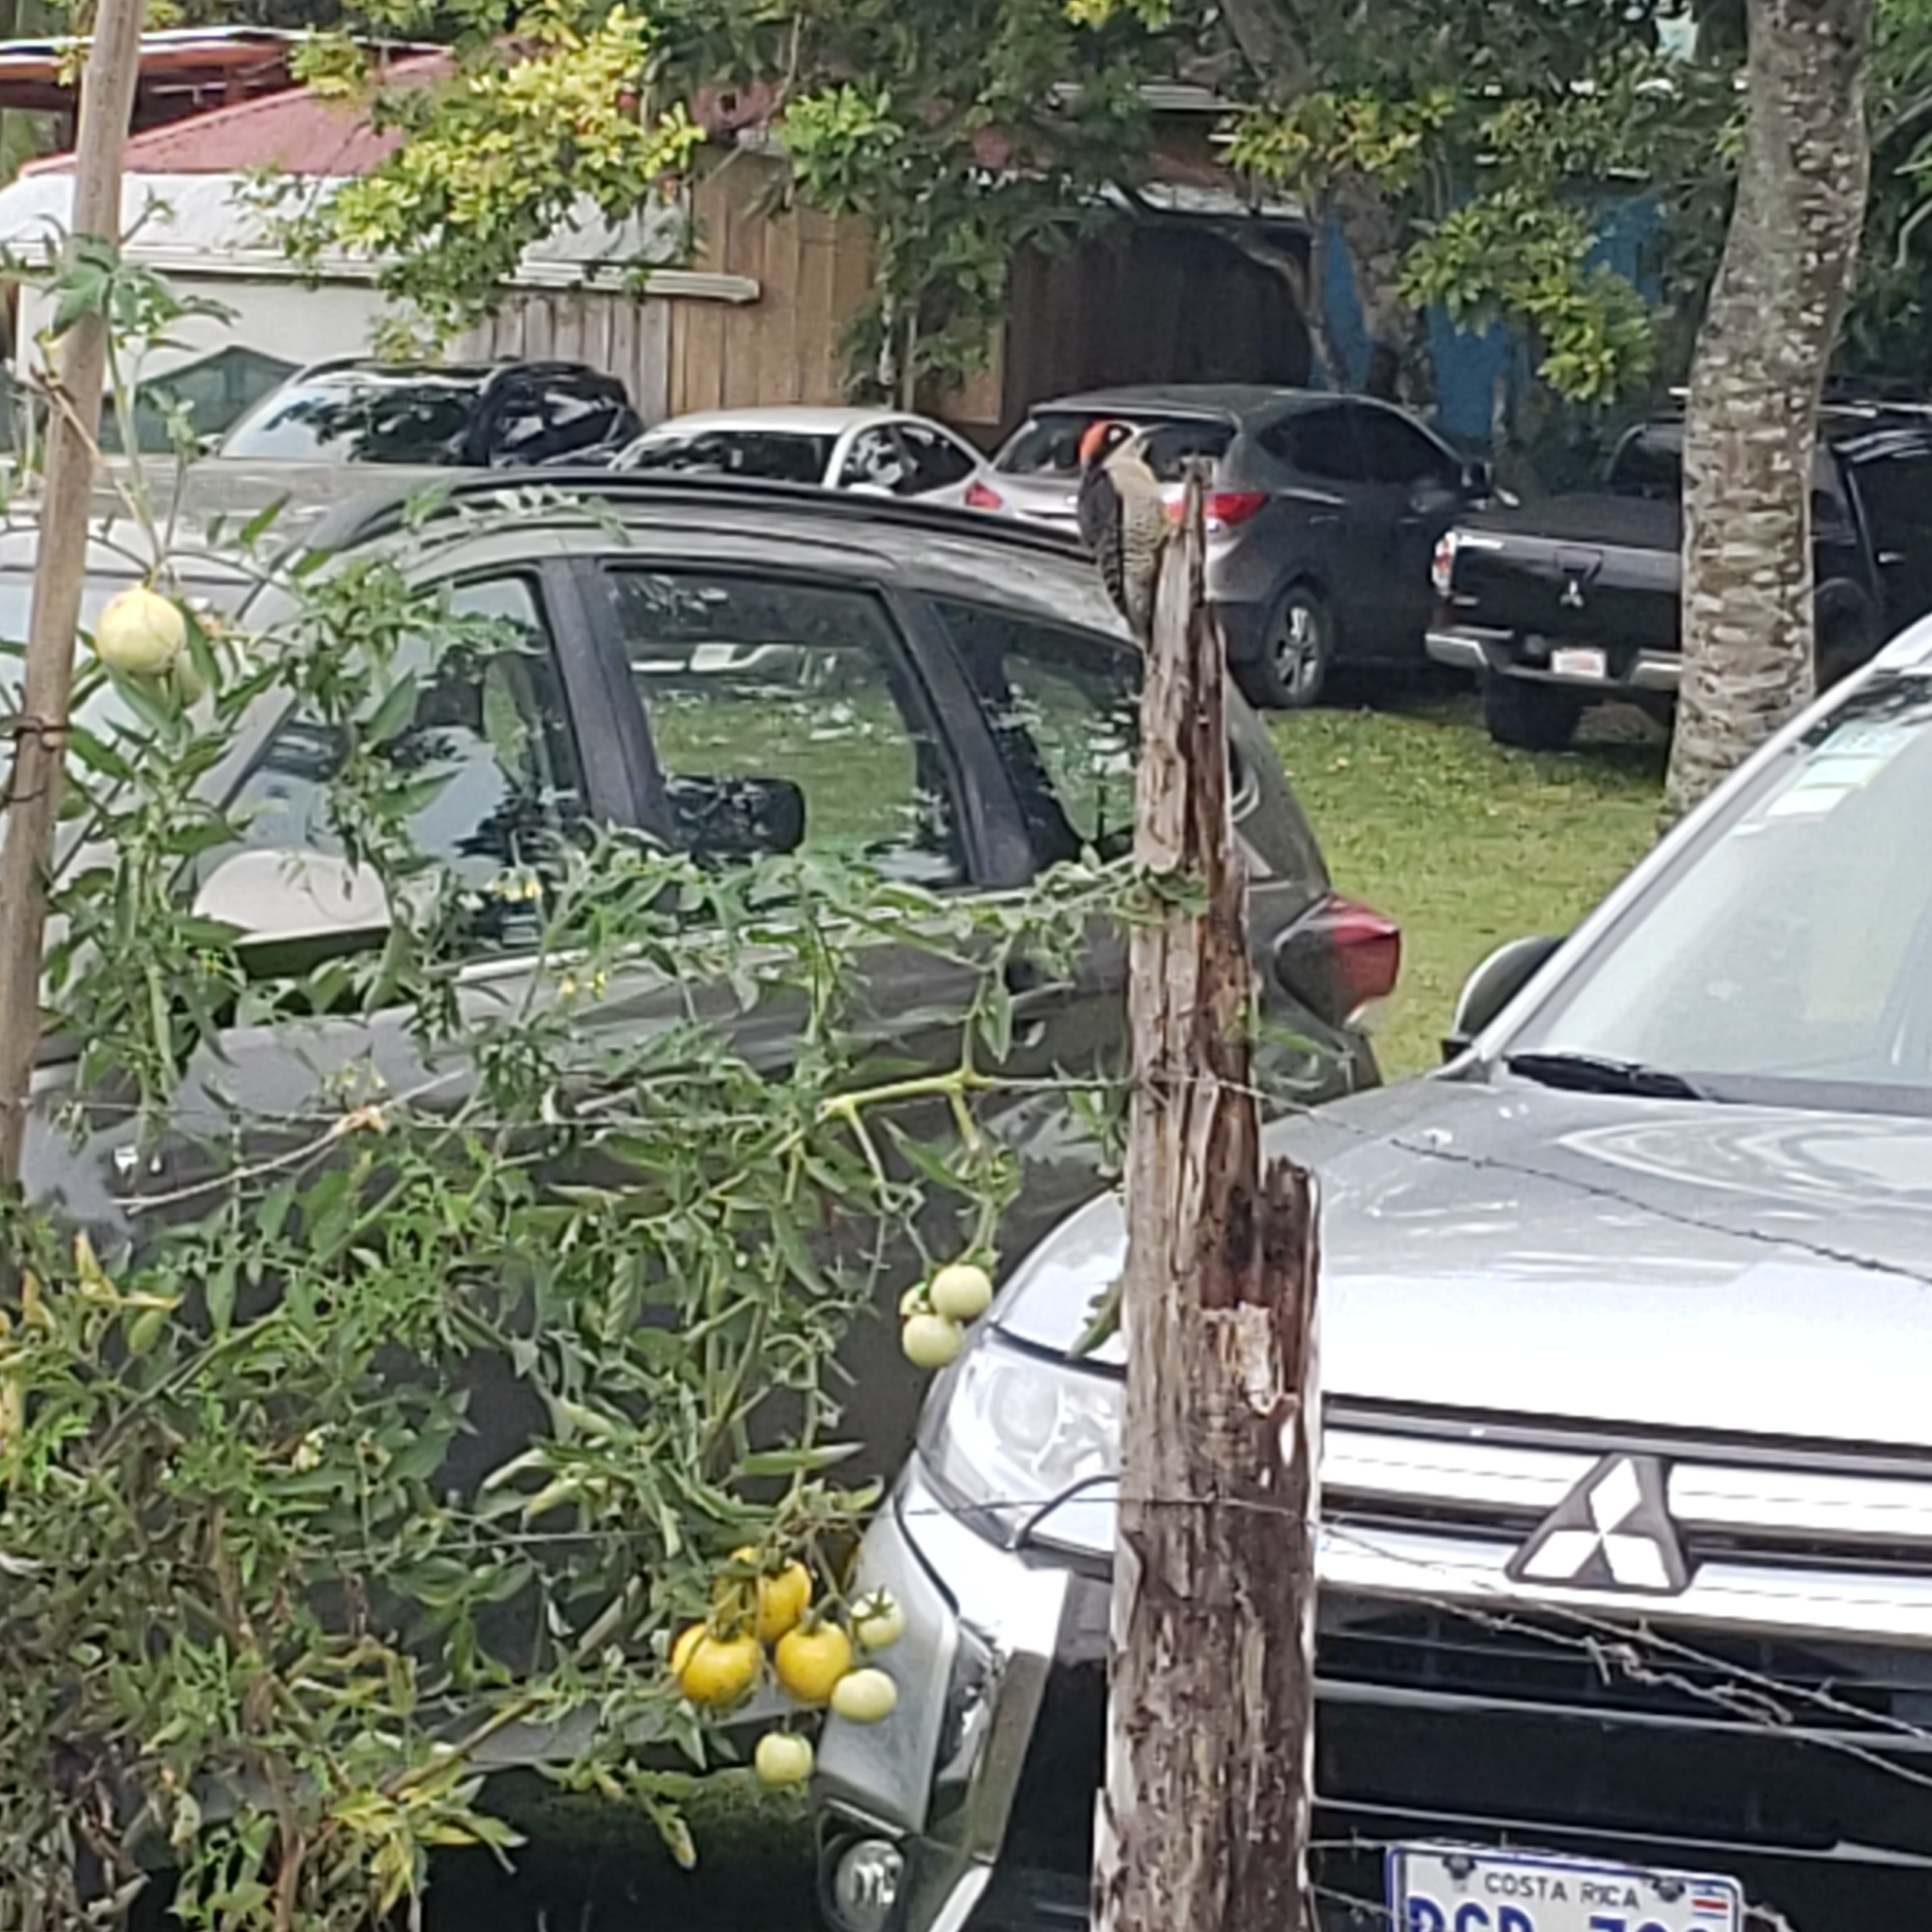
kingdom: Animalia
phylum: Chordata
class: Aves
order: Passeriformes
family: Tyrannidae
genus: Pitangus
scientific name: Pitangus sulphuratus
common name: Great kiskadee
